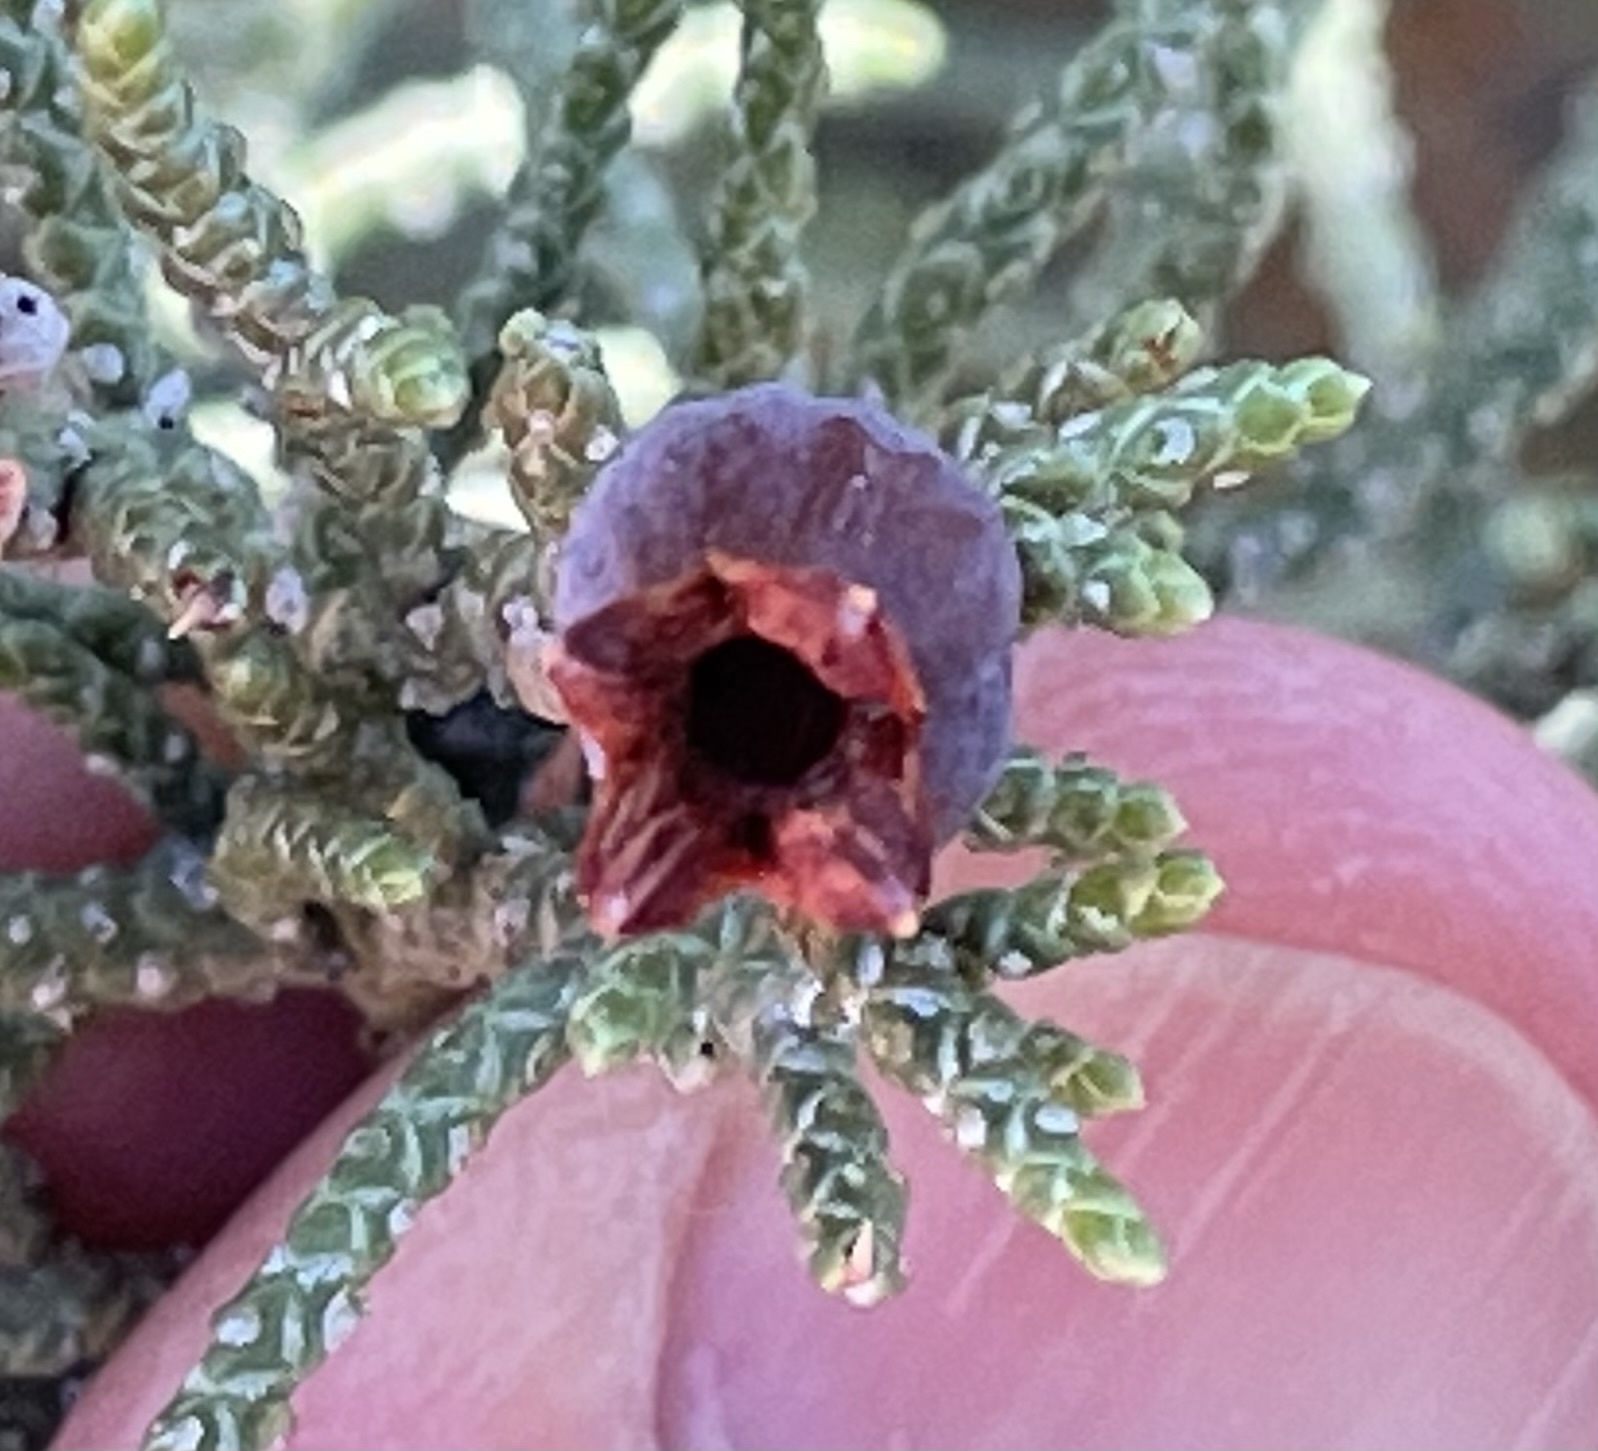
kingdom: Animalia
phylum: Arthropoda
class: Insecta
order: Diptera
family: Cecidomyiidae
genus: Walshomyia
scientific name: Walshomyia juniperina
